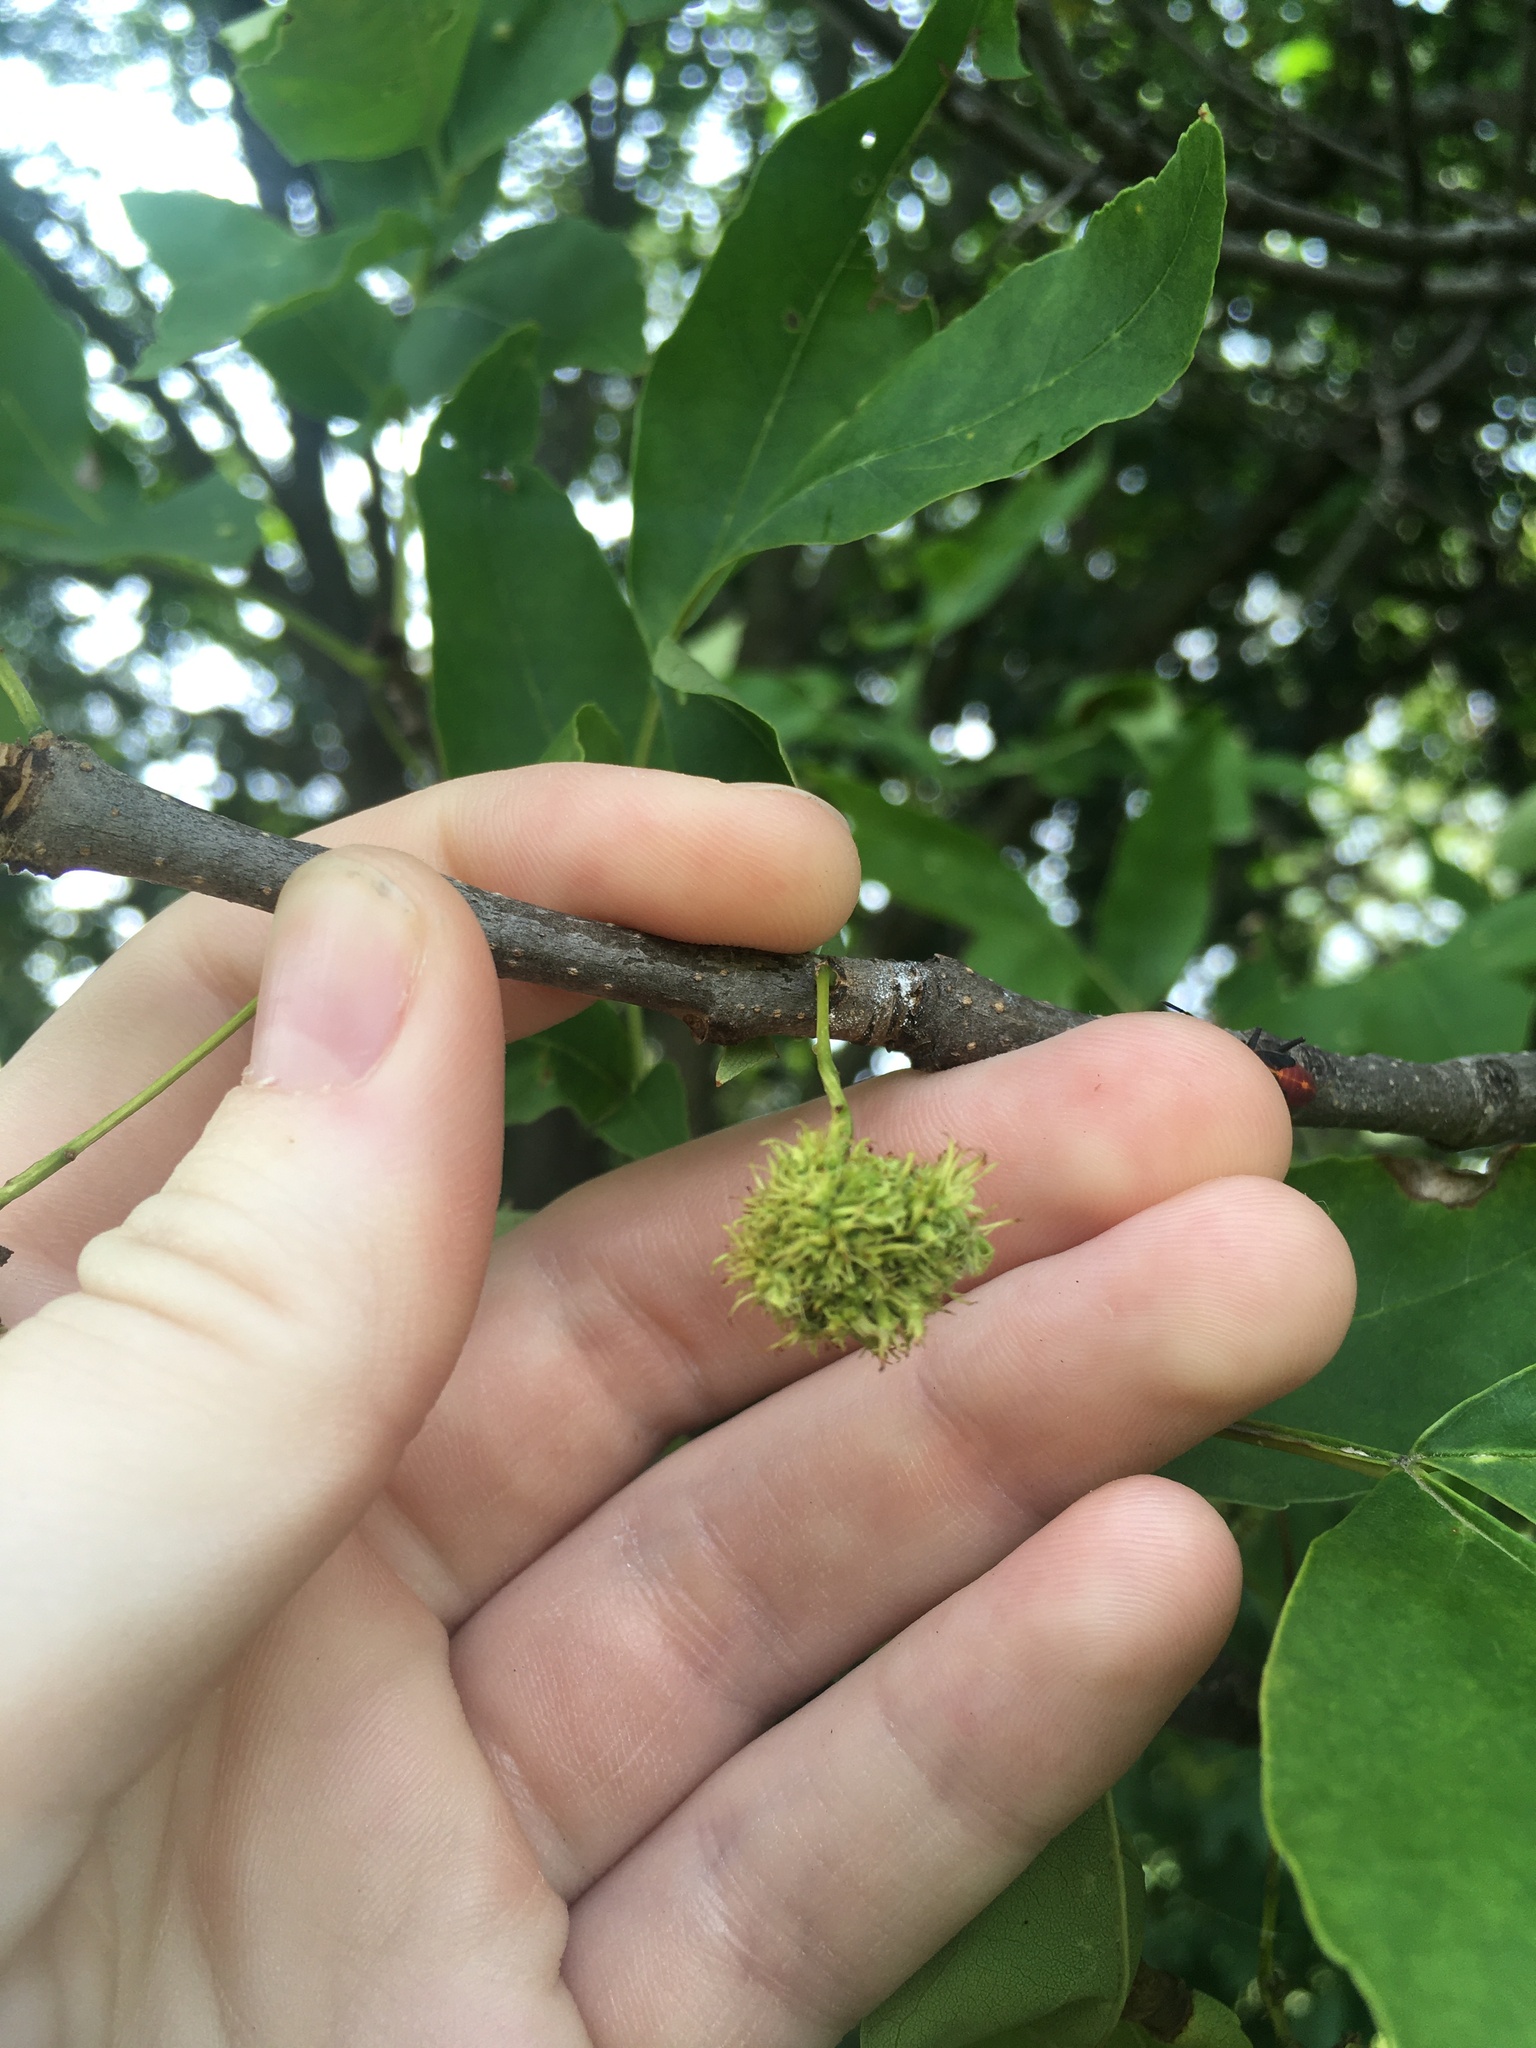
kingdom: Animalia
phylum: Arthropoda
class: Arachnida
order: Trombidiformes
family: Eriophyidae
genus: Aceria
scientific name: Aceria fraxiniflora
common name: Ash flower gall mite
